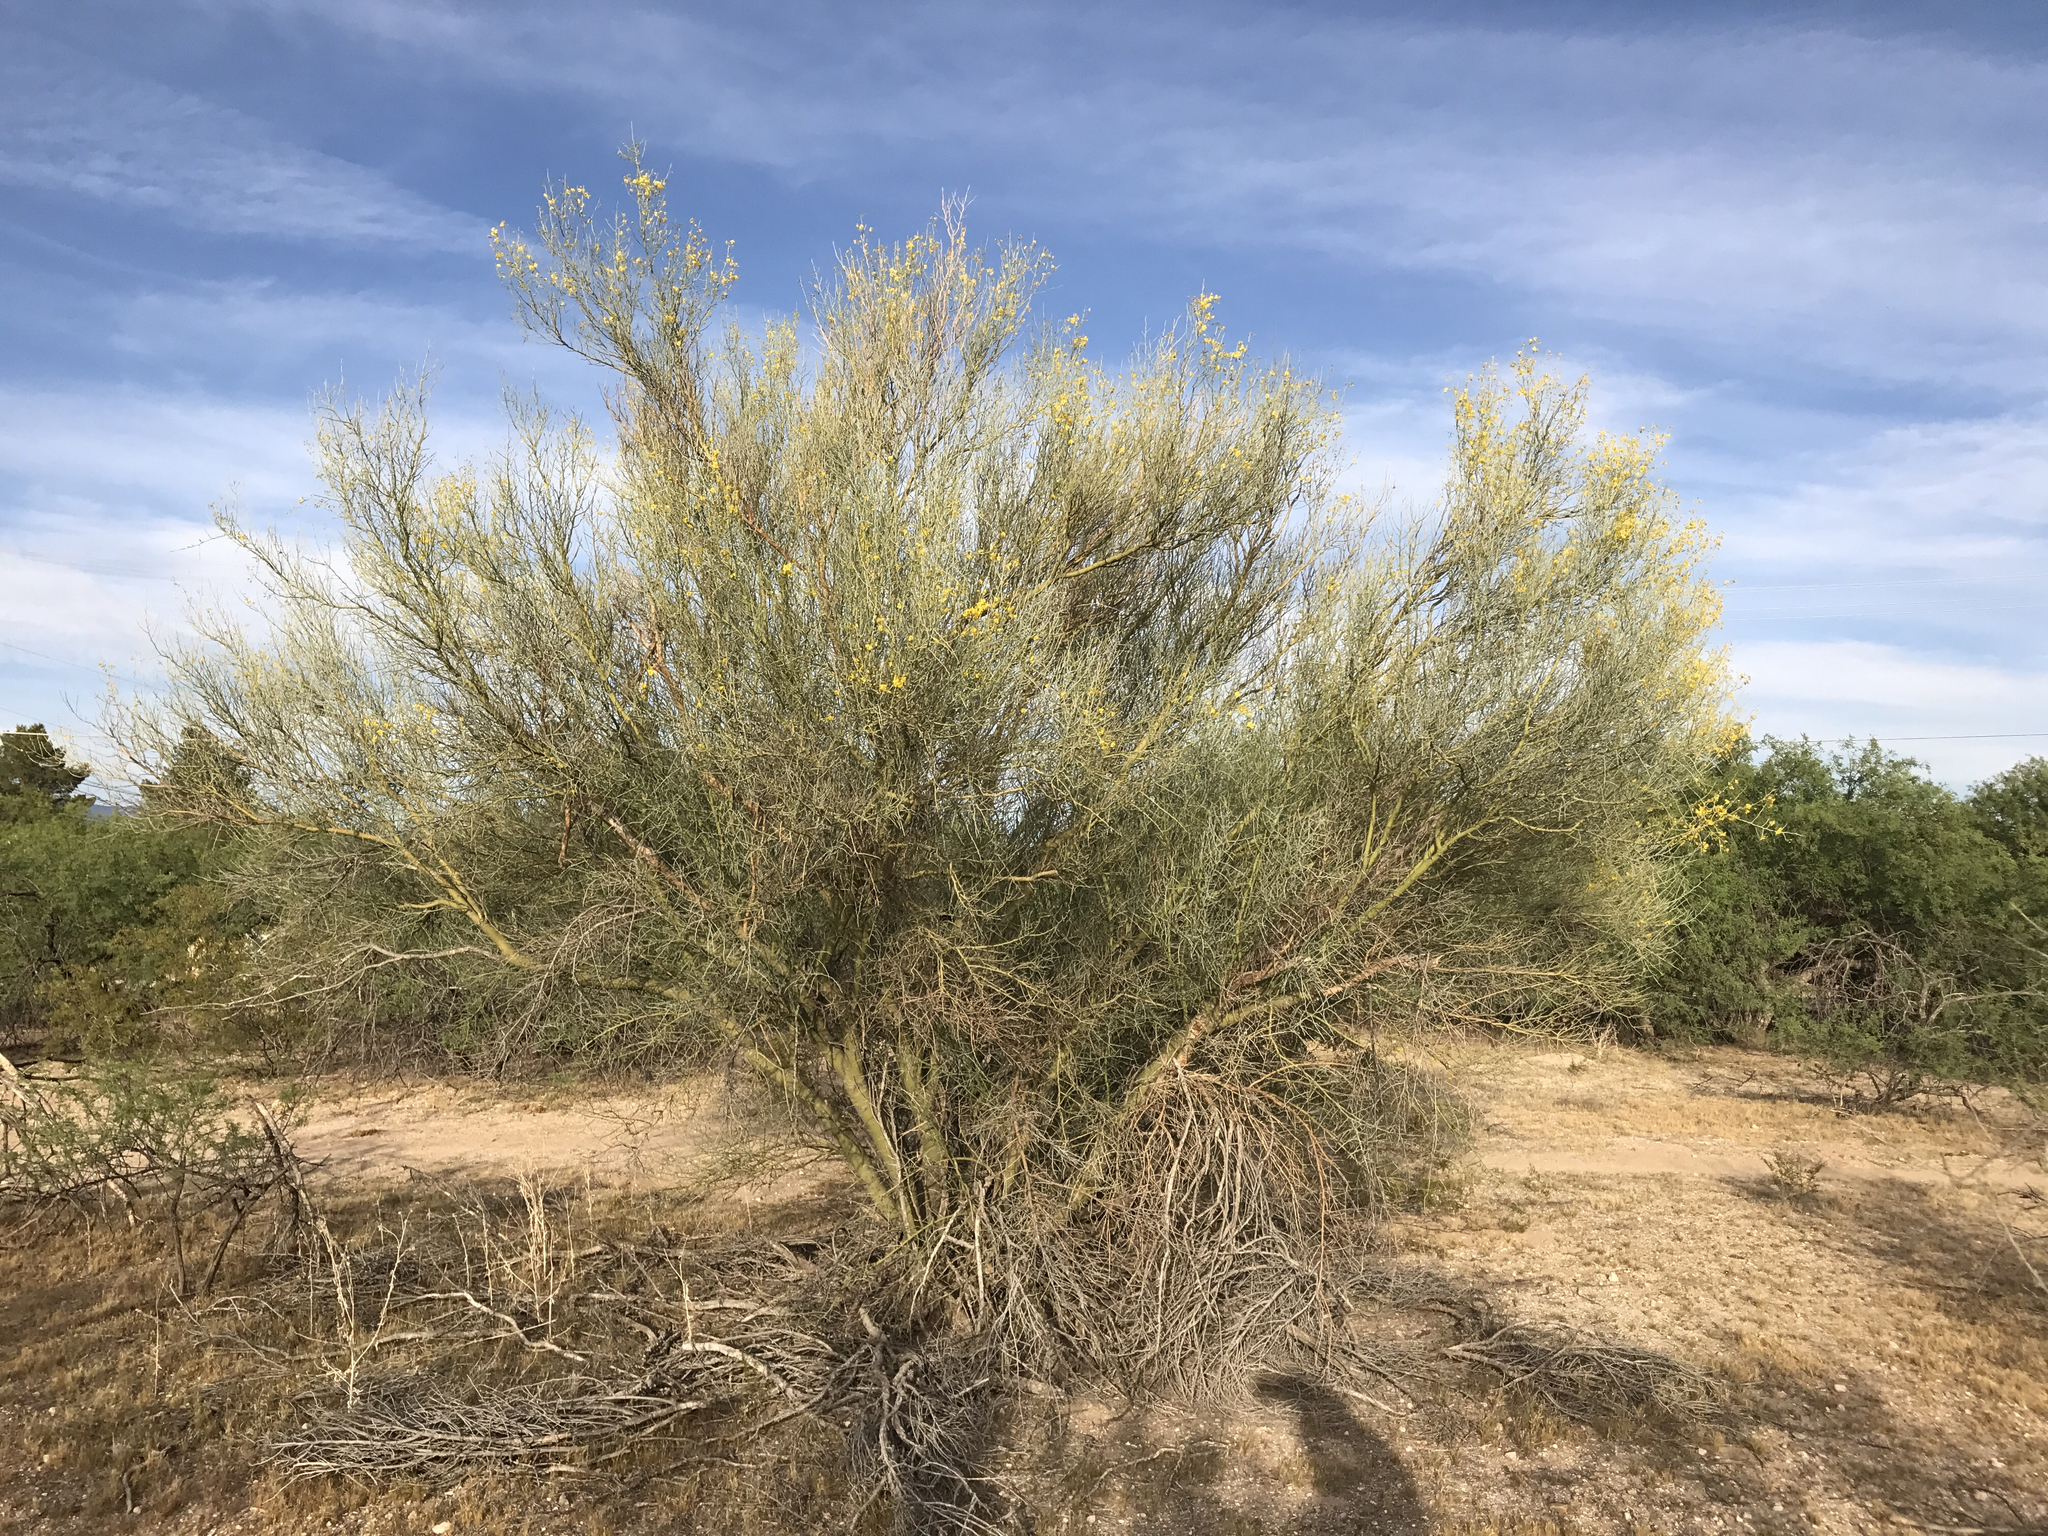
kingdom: Plantae
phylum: Tracheophyta
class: Magnoliopsida
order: Fabales
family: Fabaceae
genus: Parkinsonia
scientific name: Parkinsonia florida
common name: Blue paloverde
